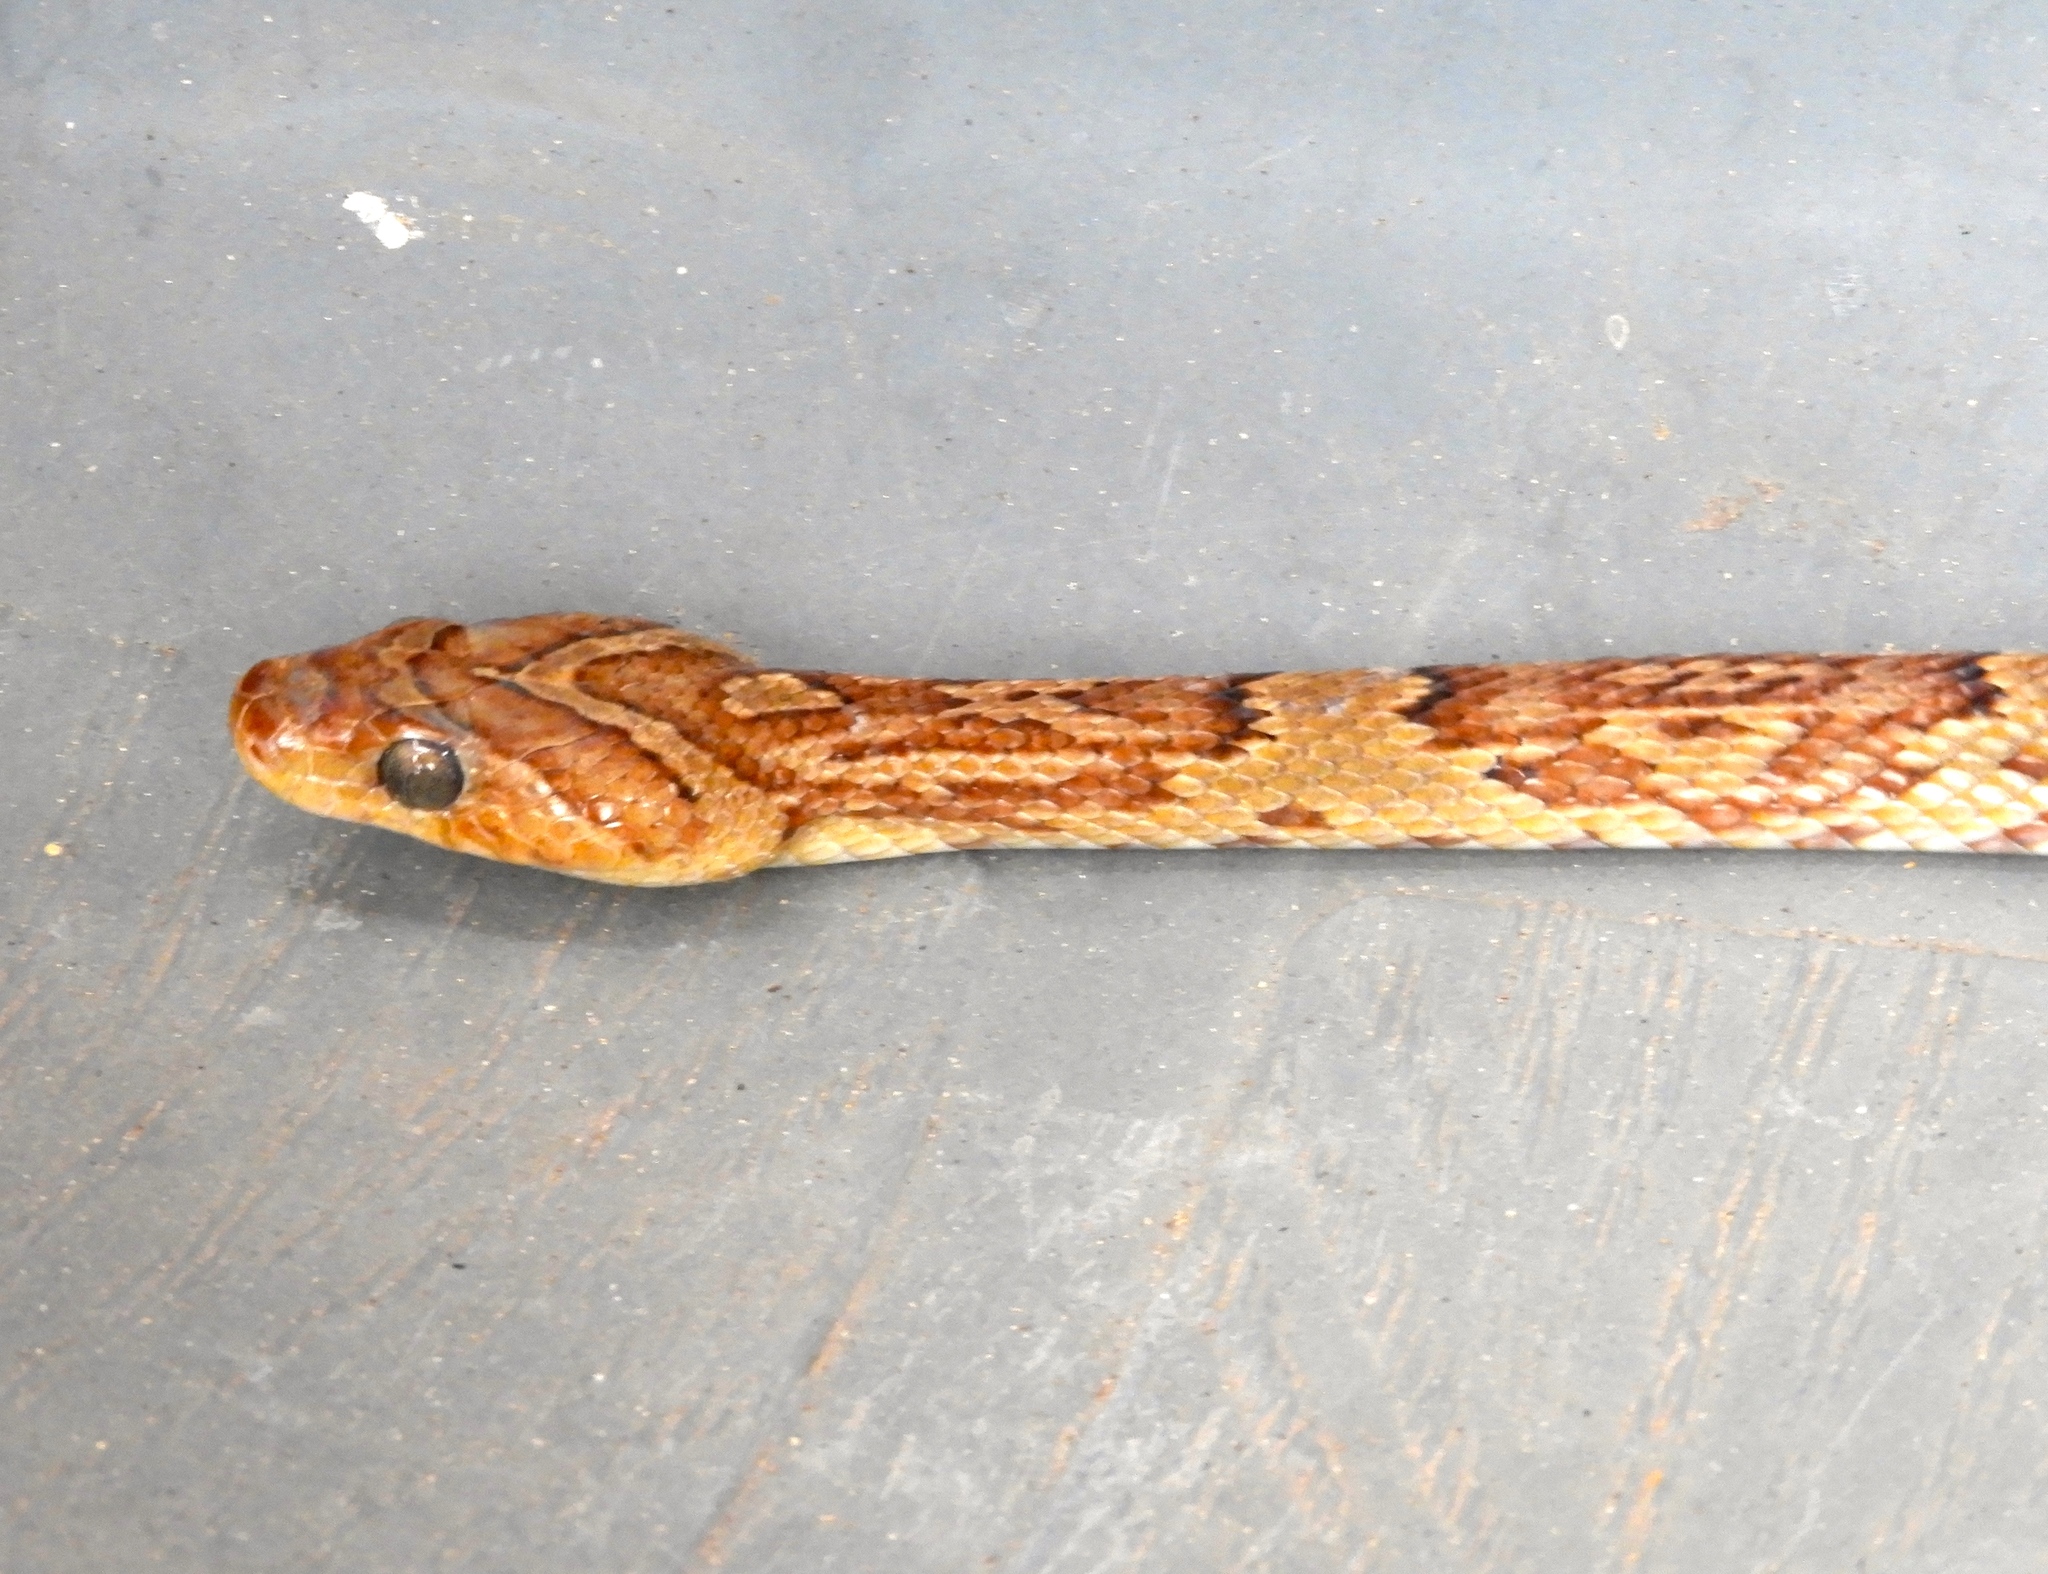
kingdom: Animalia
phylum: Chordata
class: Squamata
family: Colubridae
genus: Trimorphodon
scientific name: Trimorphodon paucimaculatus
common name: Sinaloan lyresnake
